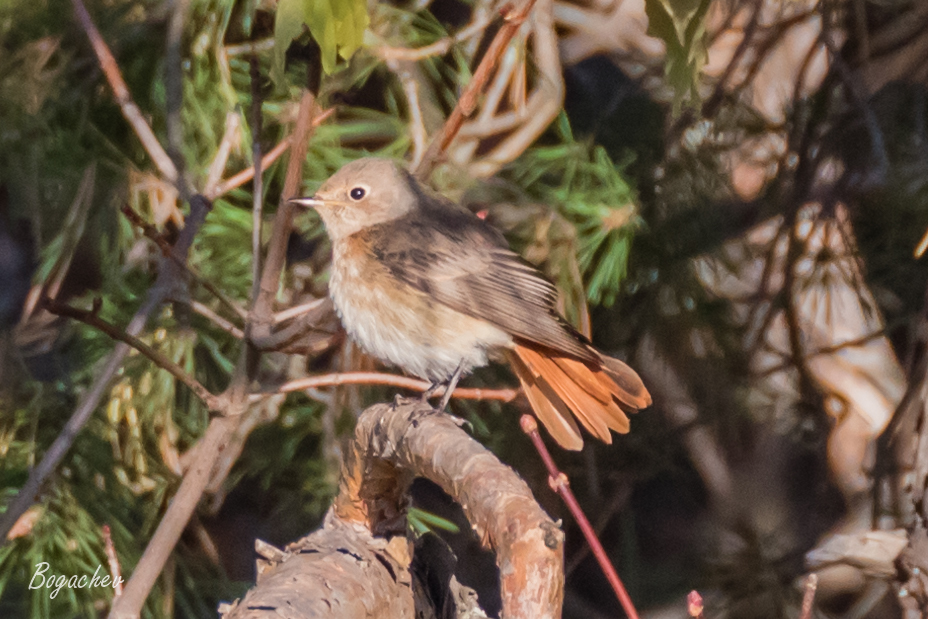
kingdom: Animalia
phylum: Chordata
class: Aves
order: Passeriformes
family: Muscicapidae
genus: Phoenicurus
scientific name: Phoenicurus phoenicurus
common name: Common redstart
